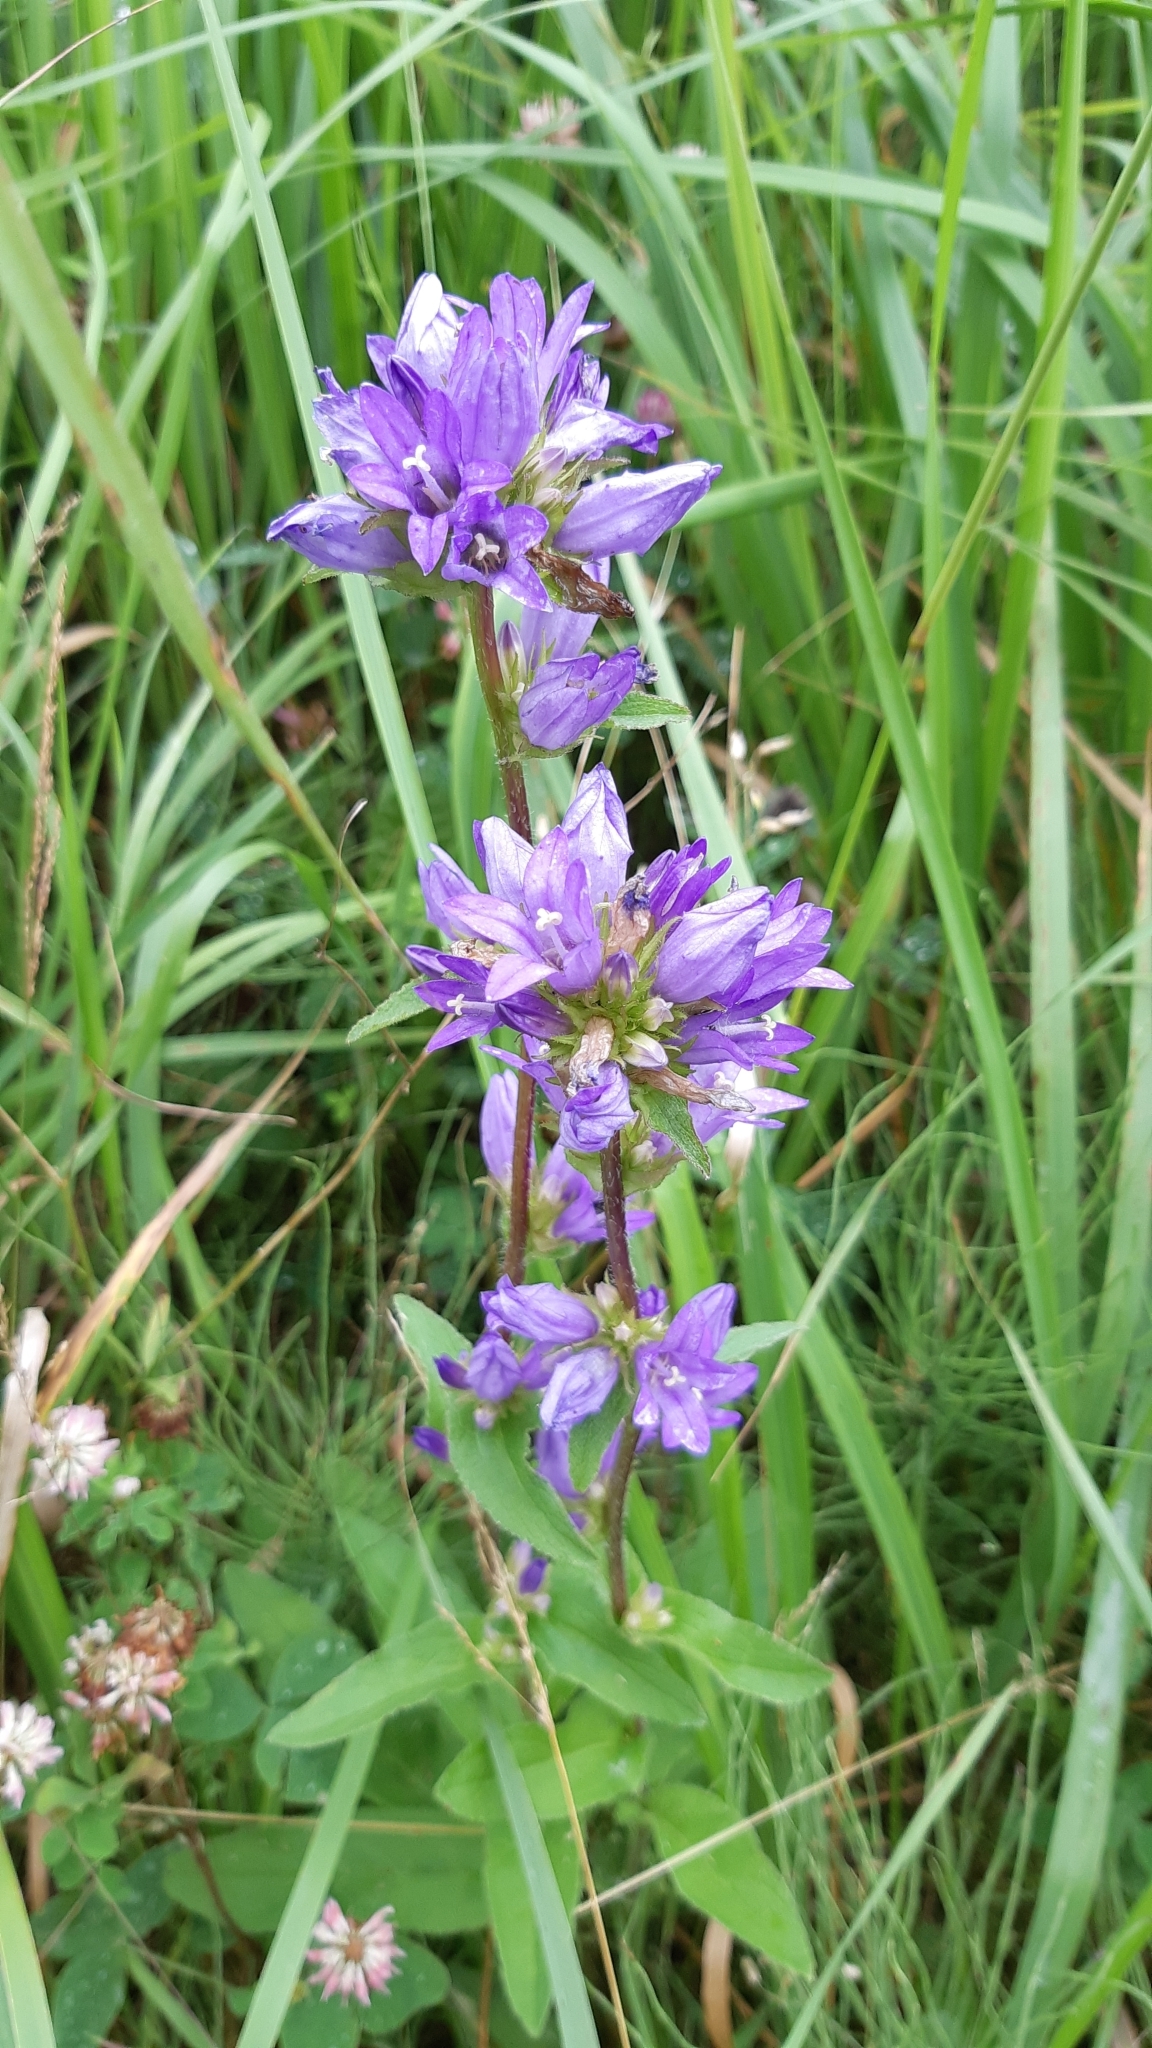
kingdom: Plantae
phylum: Tracheophyta
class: Magnoliopsida
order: Asterales
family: Campanulaceae
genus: Campanula
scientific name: Campanula glomerata
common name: Clustered bellflower
